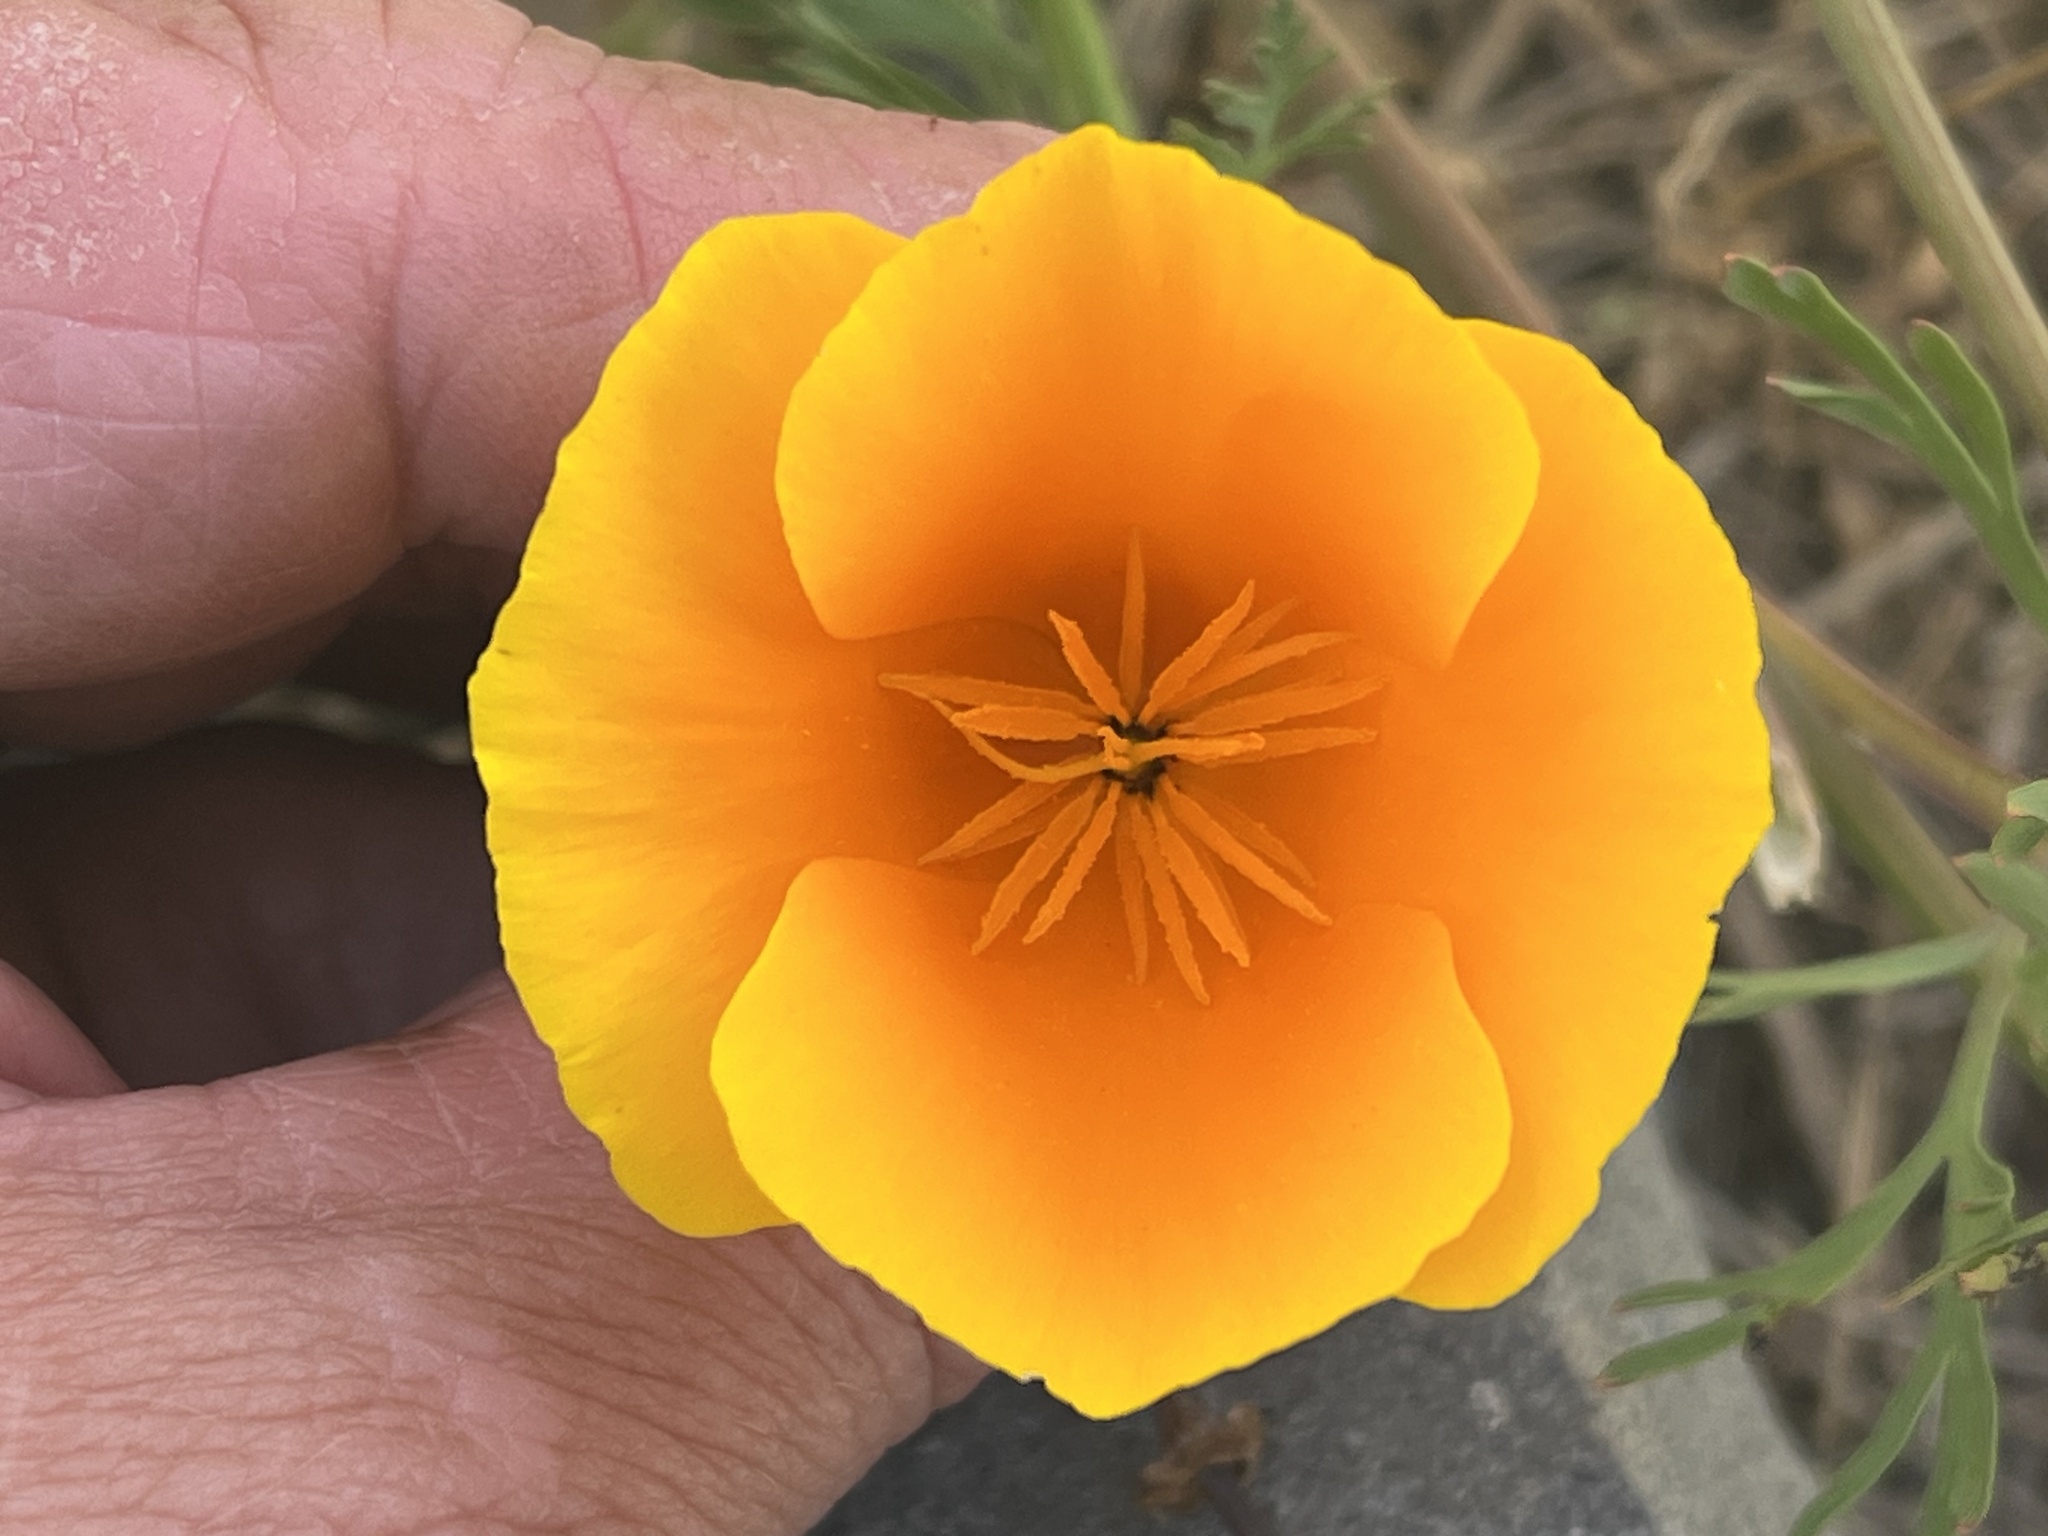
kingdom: Plantae
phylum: Tracheophyta
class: Magnoliopsida
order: Ranunculales
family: Papaveraceae
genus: Eschscholzia
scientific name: Eschscholzia californica
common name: California poppy
